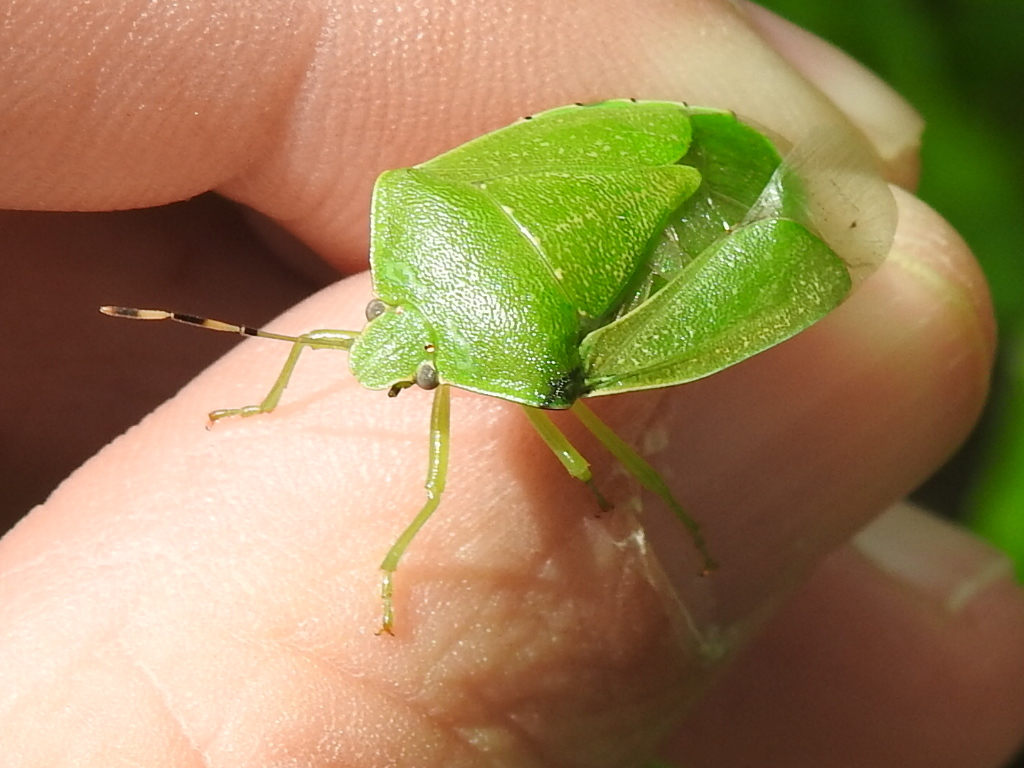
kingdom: Animalia
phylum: Arthropoda
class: Insecta
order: Hemiptera
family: Pentatomidae
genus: Chinavia
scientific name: Chinavia hilaris
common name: Green stink bug
